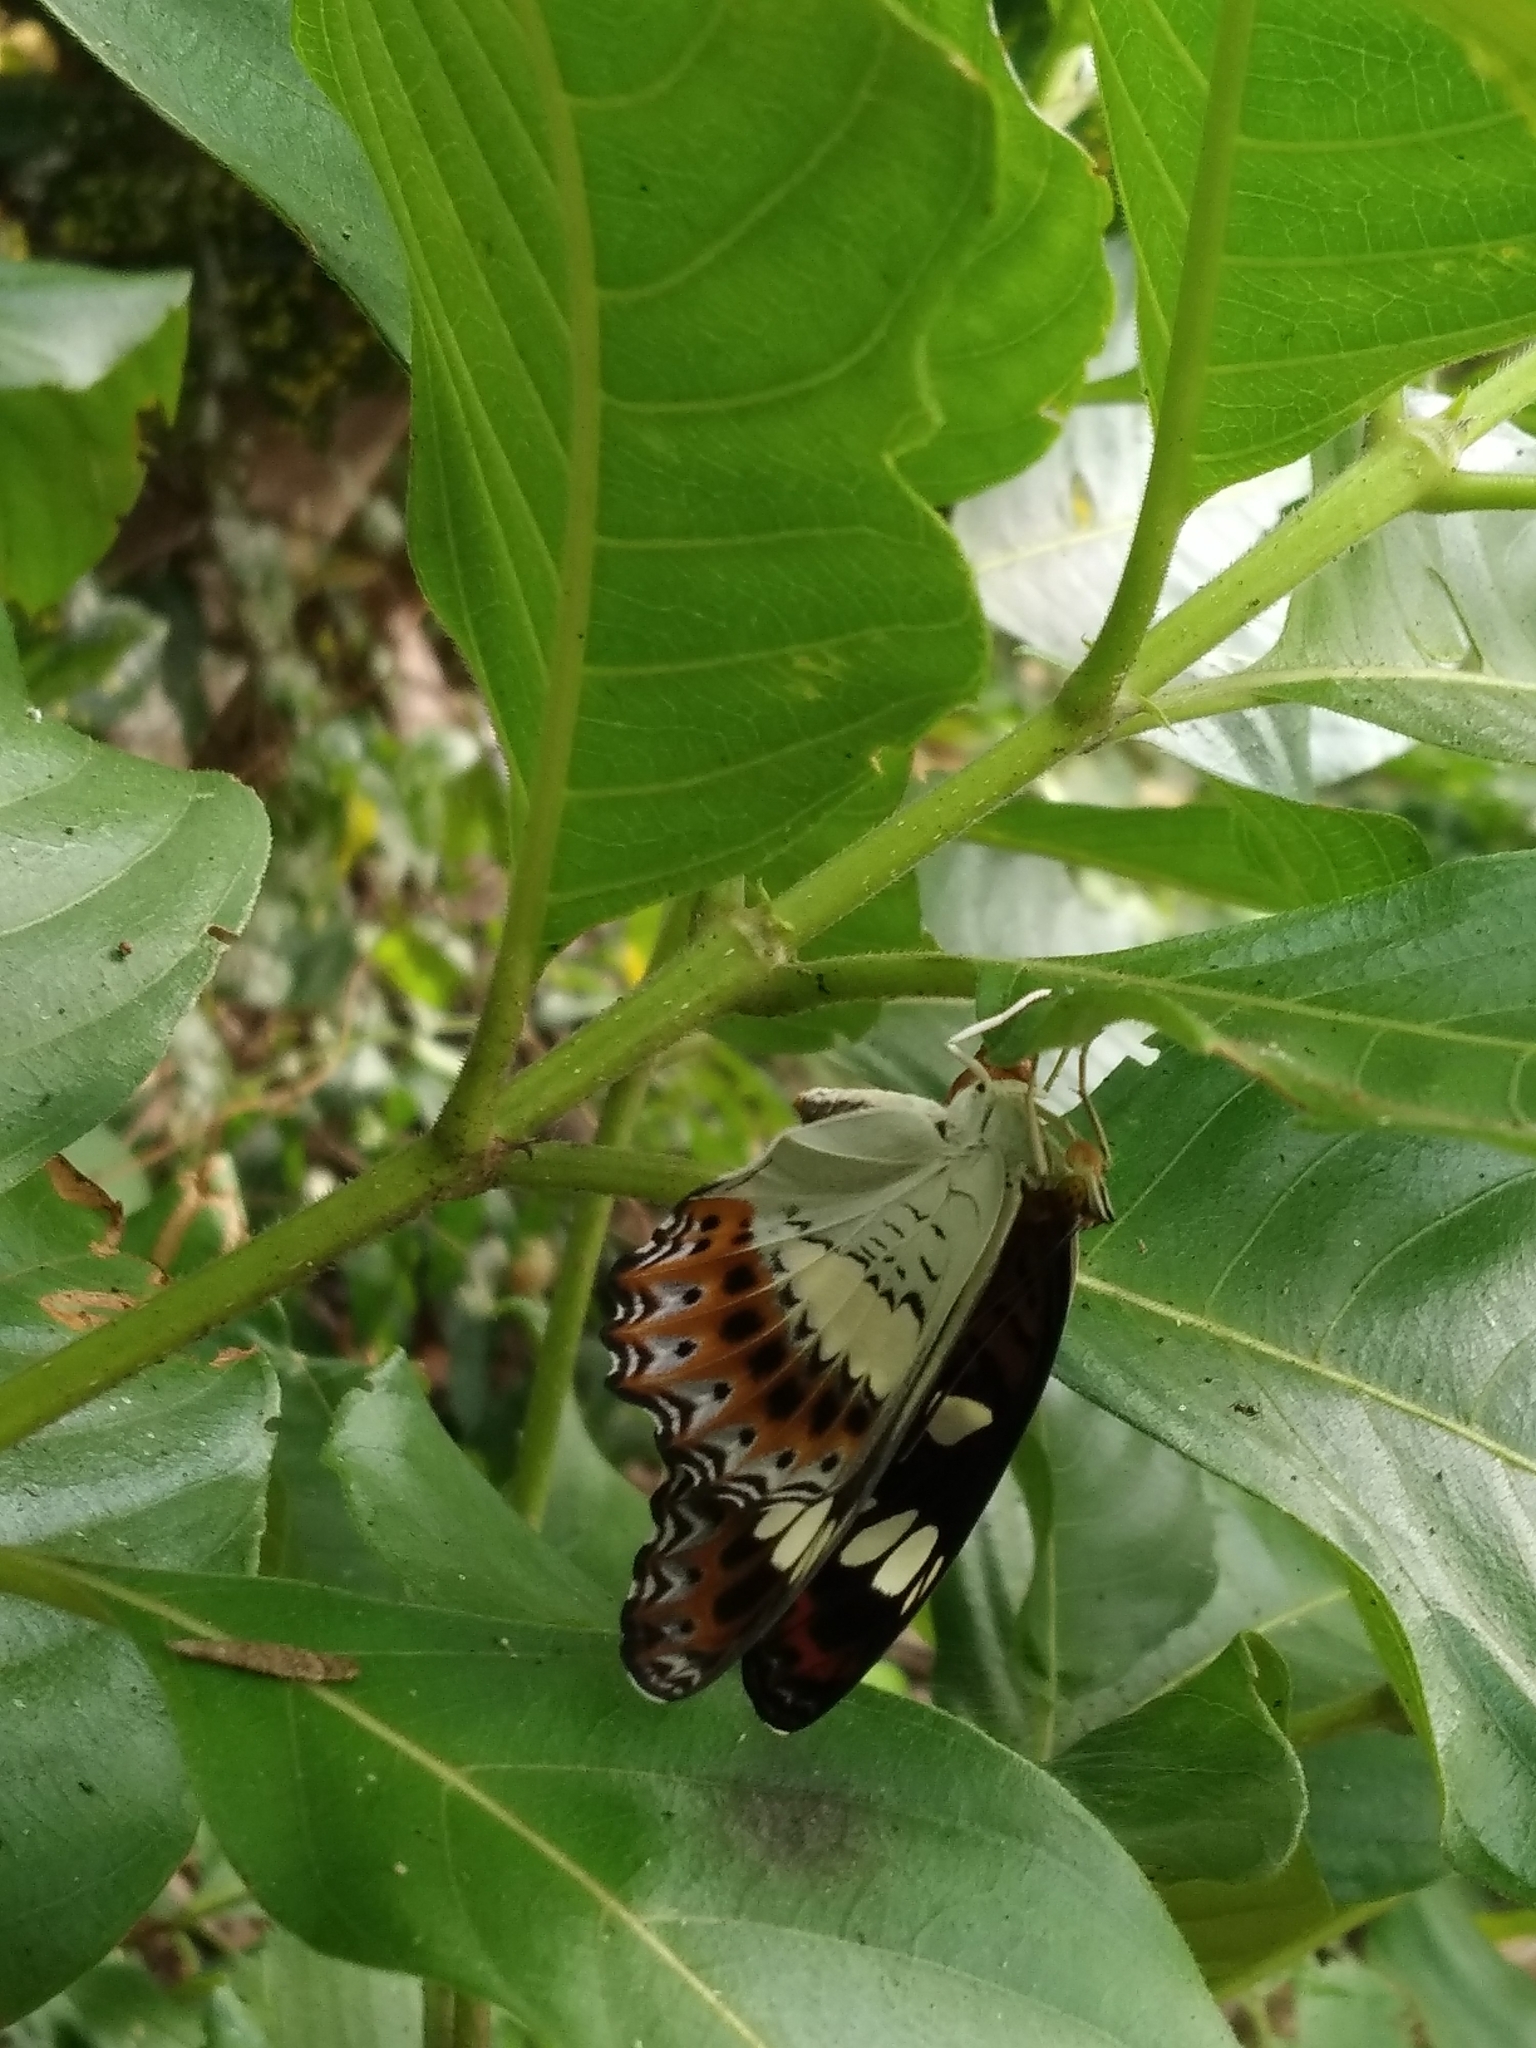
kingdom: Animalia
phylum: Arthropoda
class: Insecta
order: Lepidoptera
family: Nymphalidae
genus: Limenitis
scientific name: Limenitis Moduza procris
